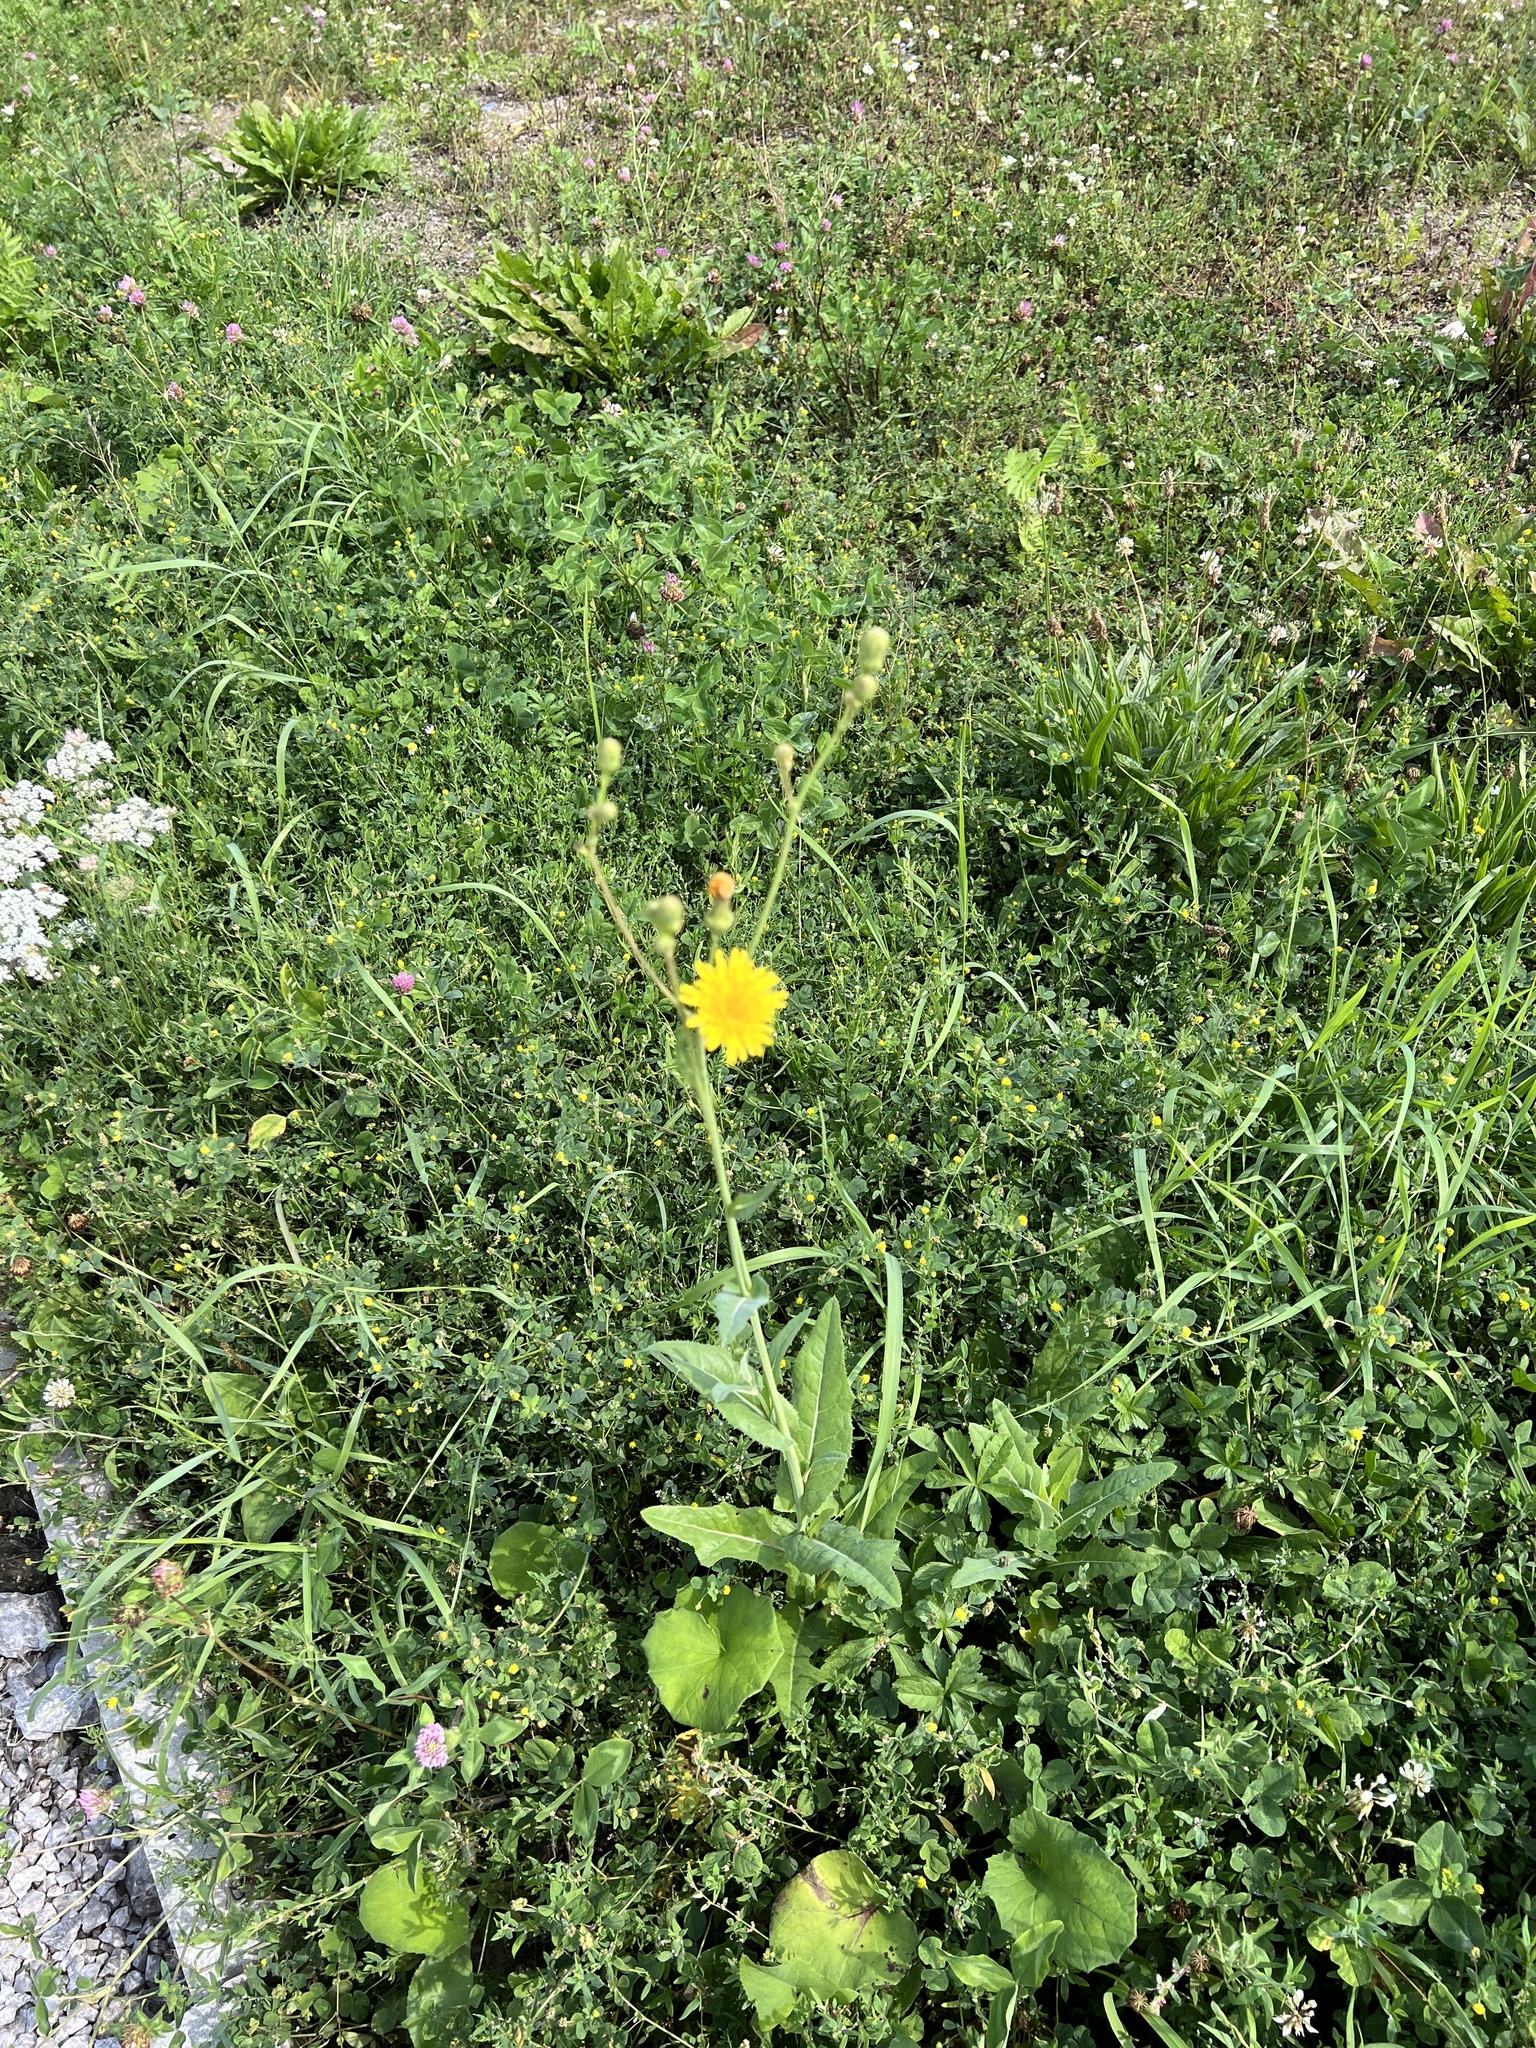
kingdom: Plantae
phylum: Tracheophyta
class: Magnoliopsida
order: Asterales
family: Asteraceae
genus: Sonchus
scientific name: Sonchus arvensis
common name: Perennial sow-thistle
